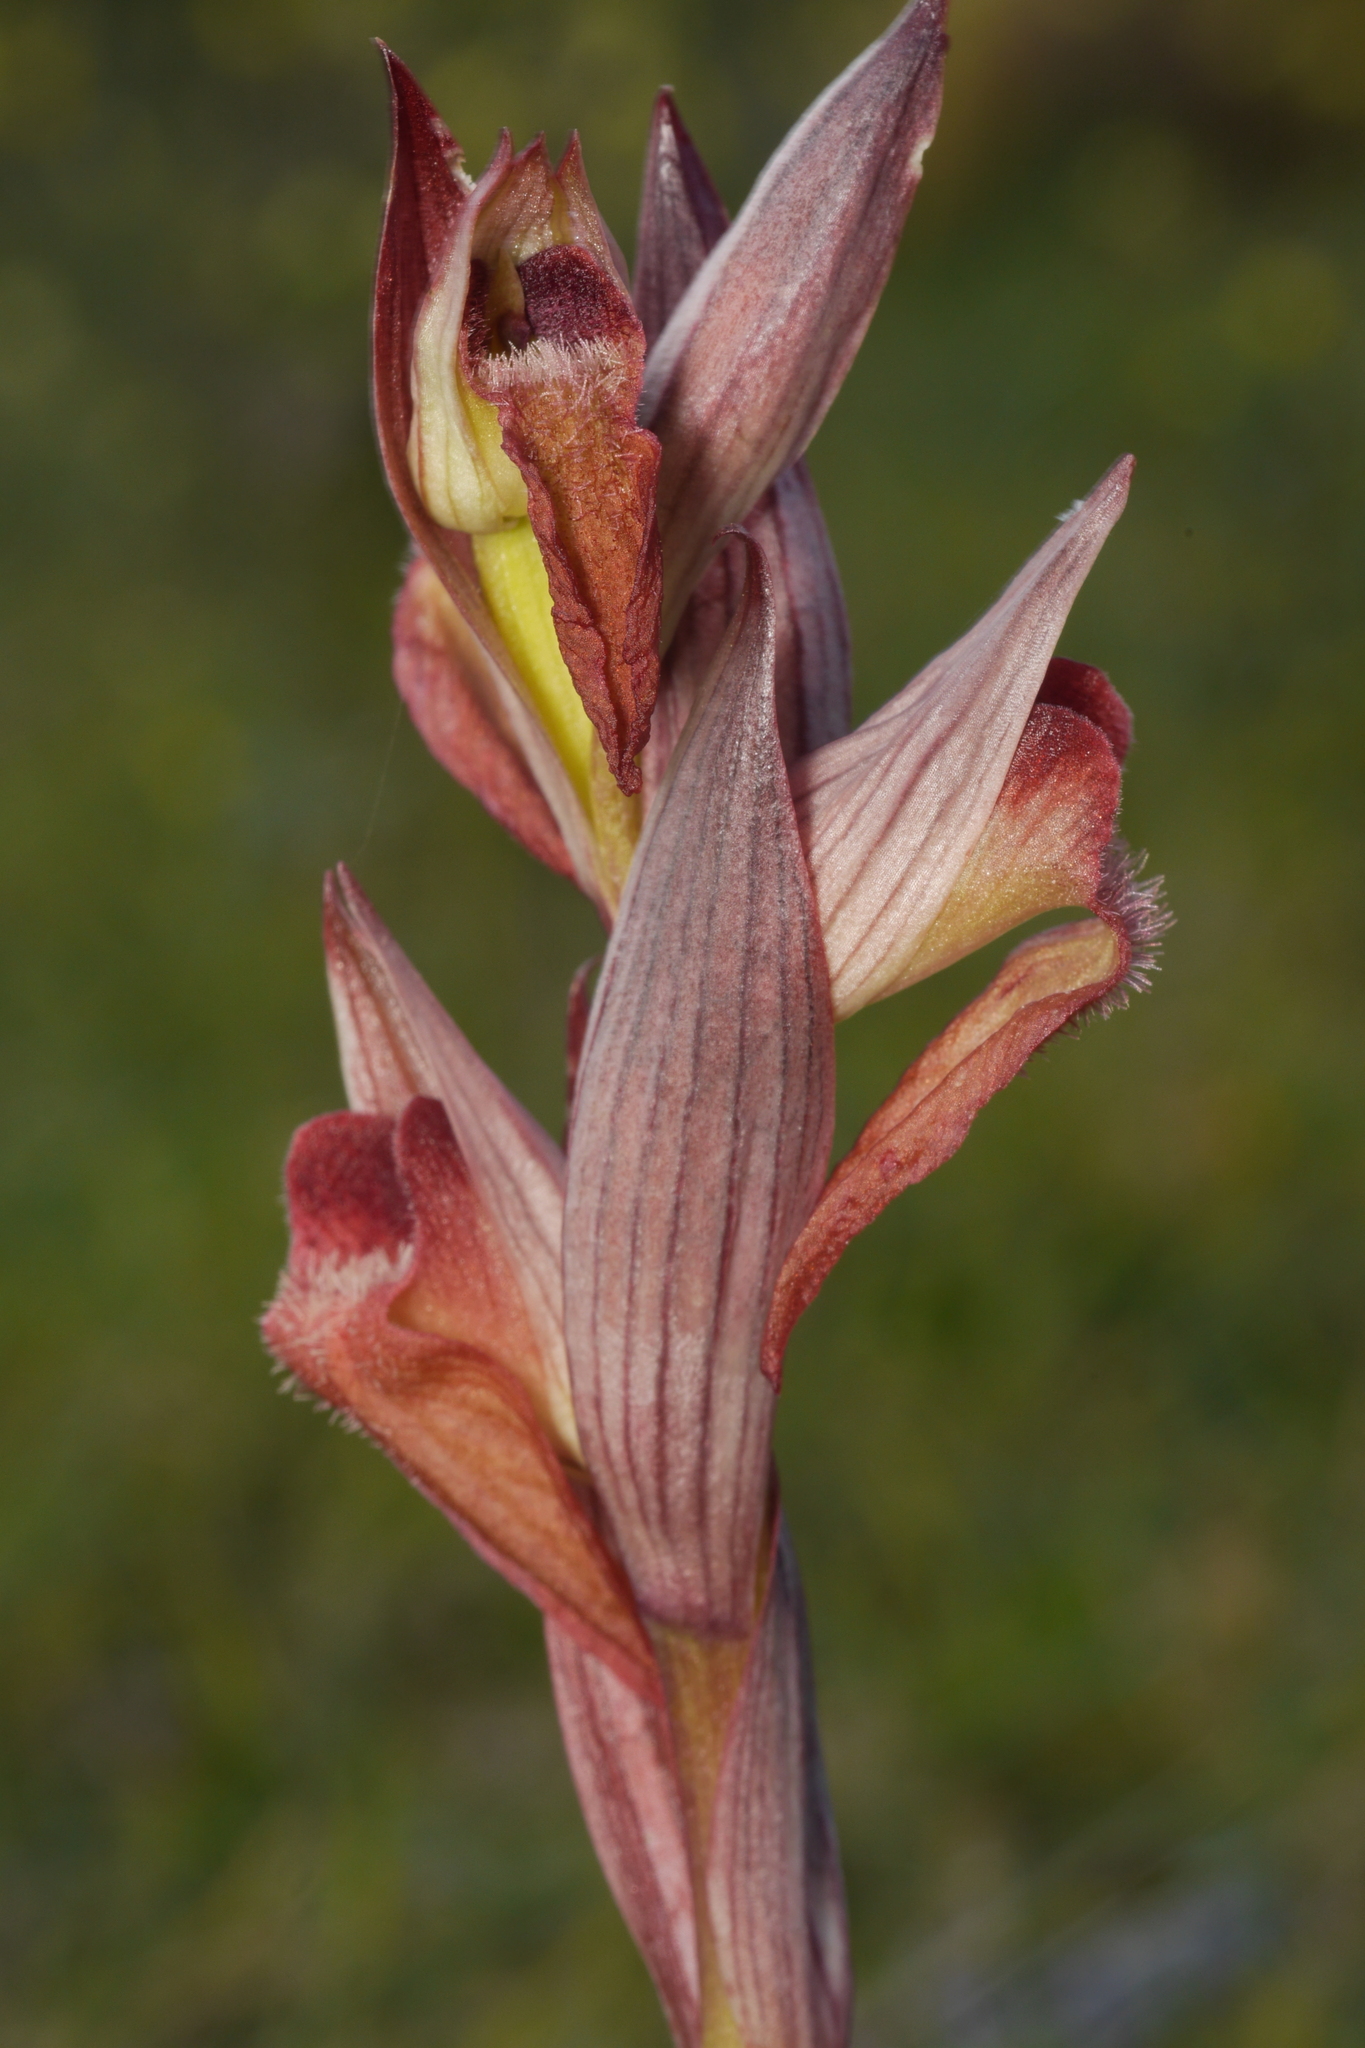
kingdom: Plantae
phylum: Tracheophyta
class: Liliopsida
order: Asparagales
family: Orchidaceae
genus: Serapias
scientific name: Serapias orientalis
